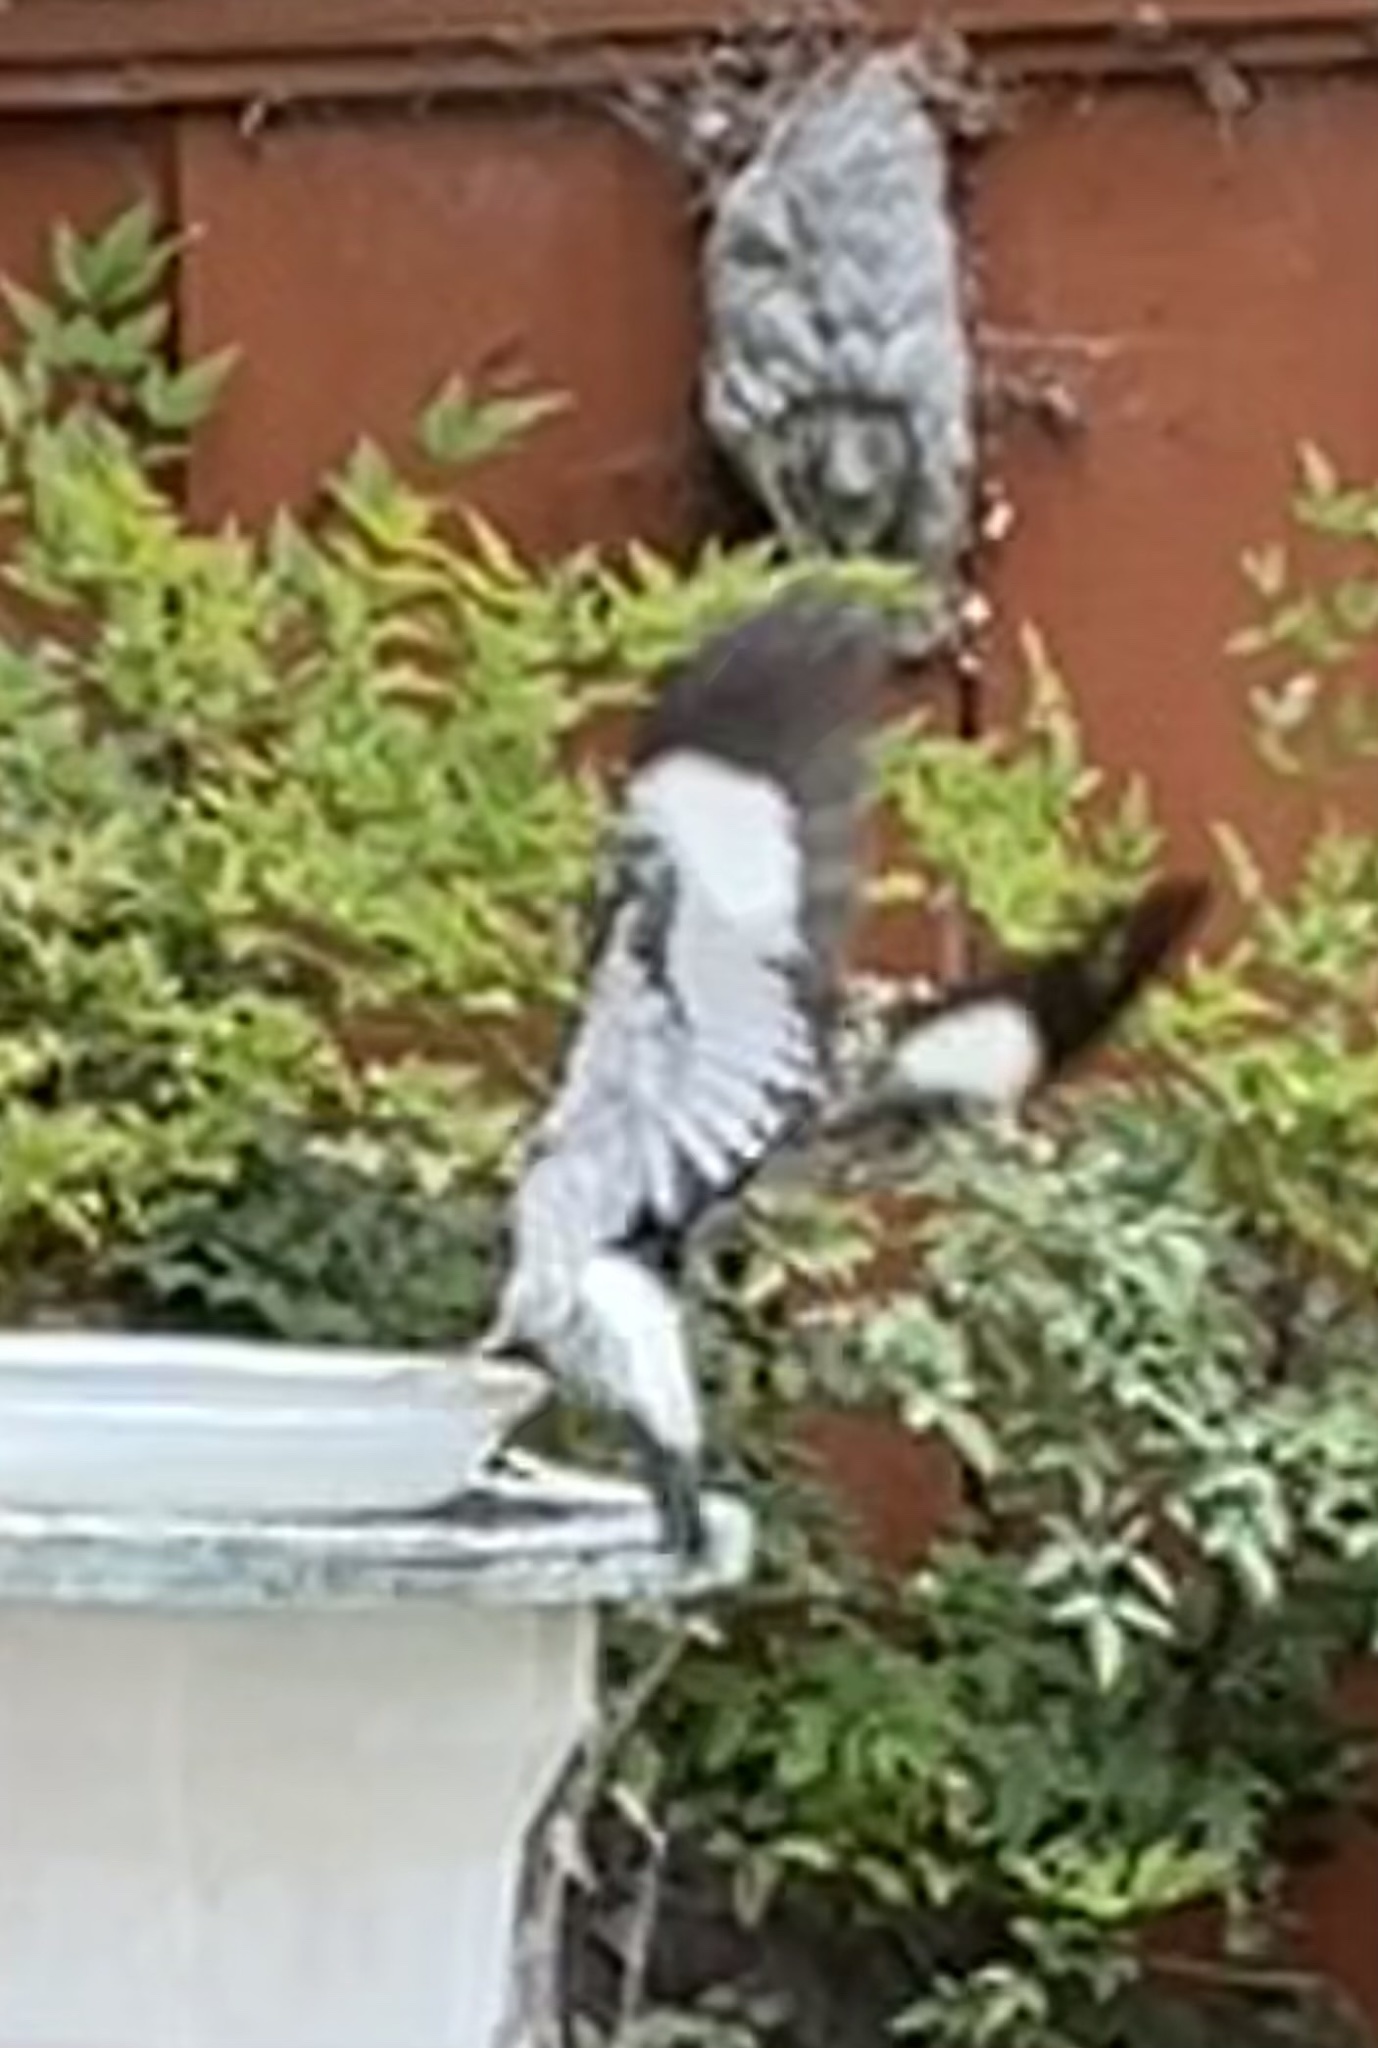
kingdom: Animalia
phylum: Chordata
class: Aves
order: Piciformes
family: Picidae
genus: Melanerpes
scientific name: Melanerpes formicivorus
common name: Acorn woodpecker
